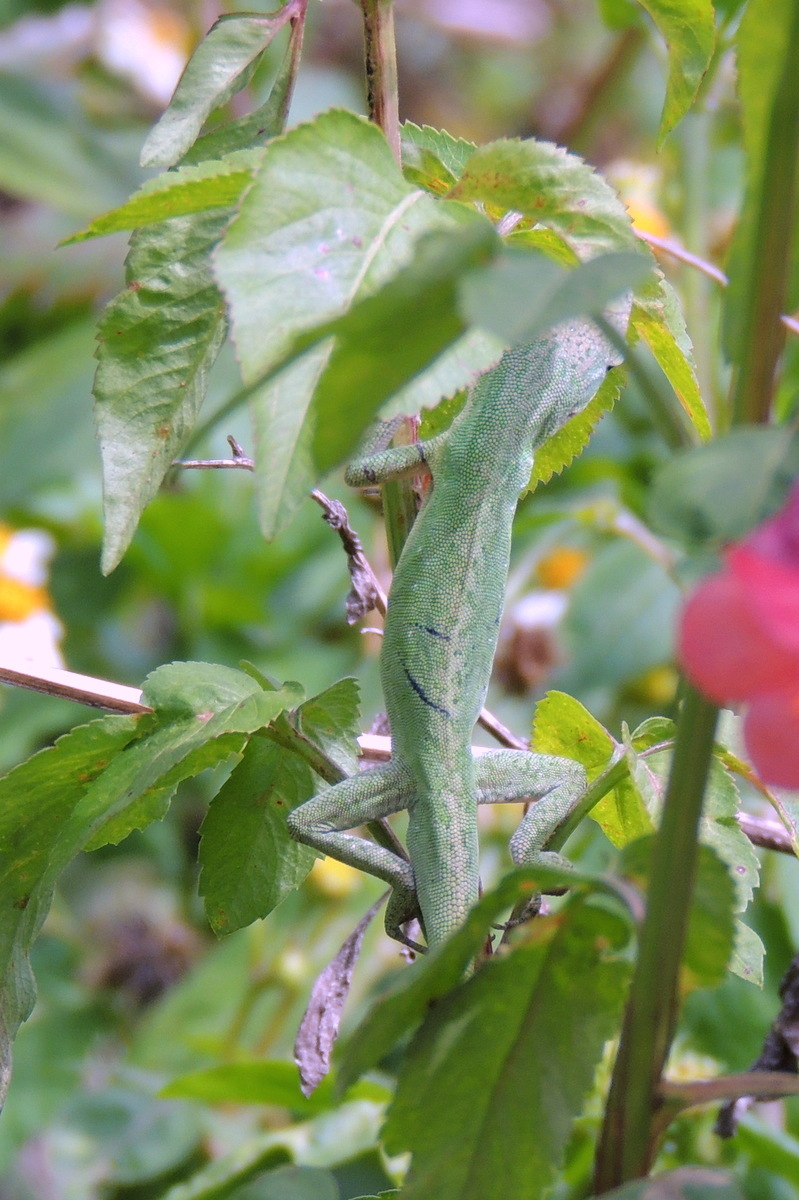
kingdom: Animalia
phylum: Chordata
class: Squamata
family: Dactyloidae
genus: Anolis
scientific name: Anolis carolinensis
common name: Green anole
